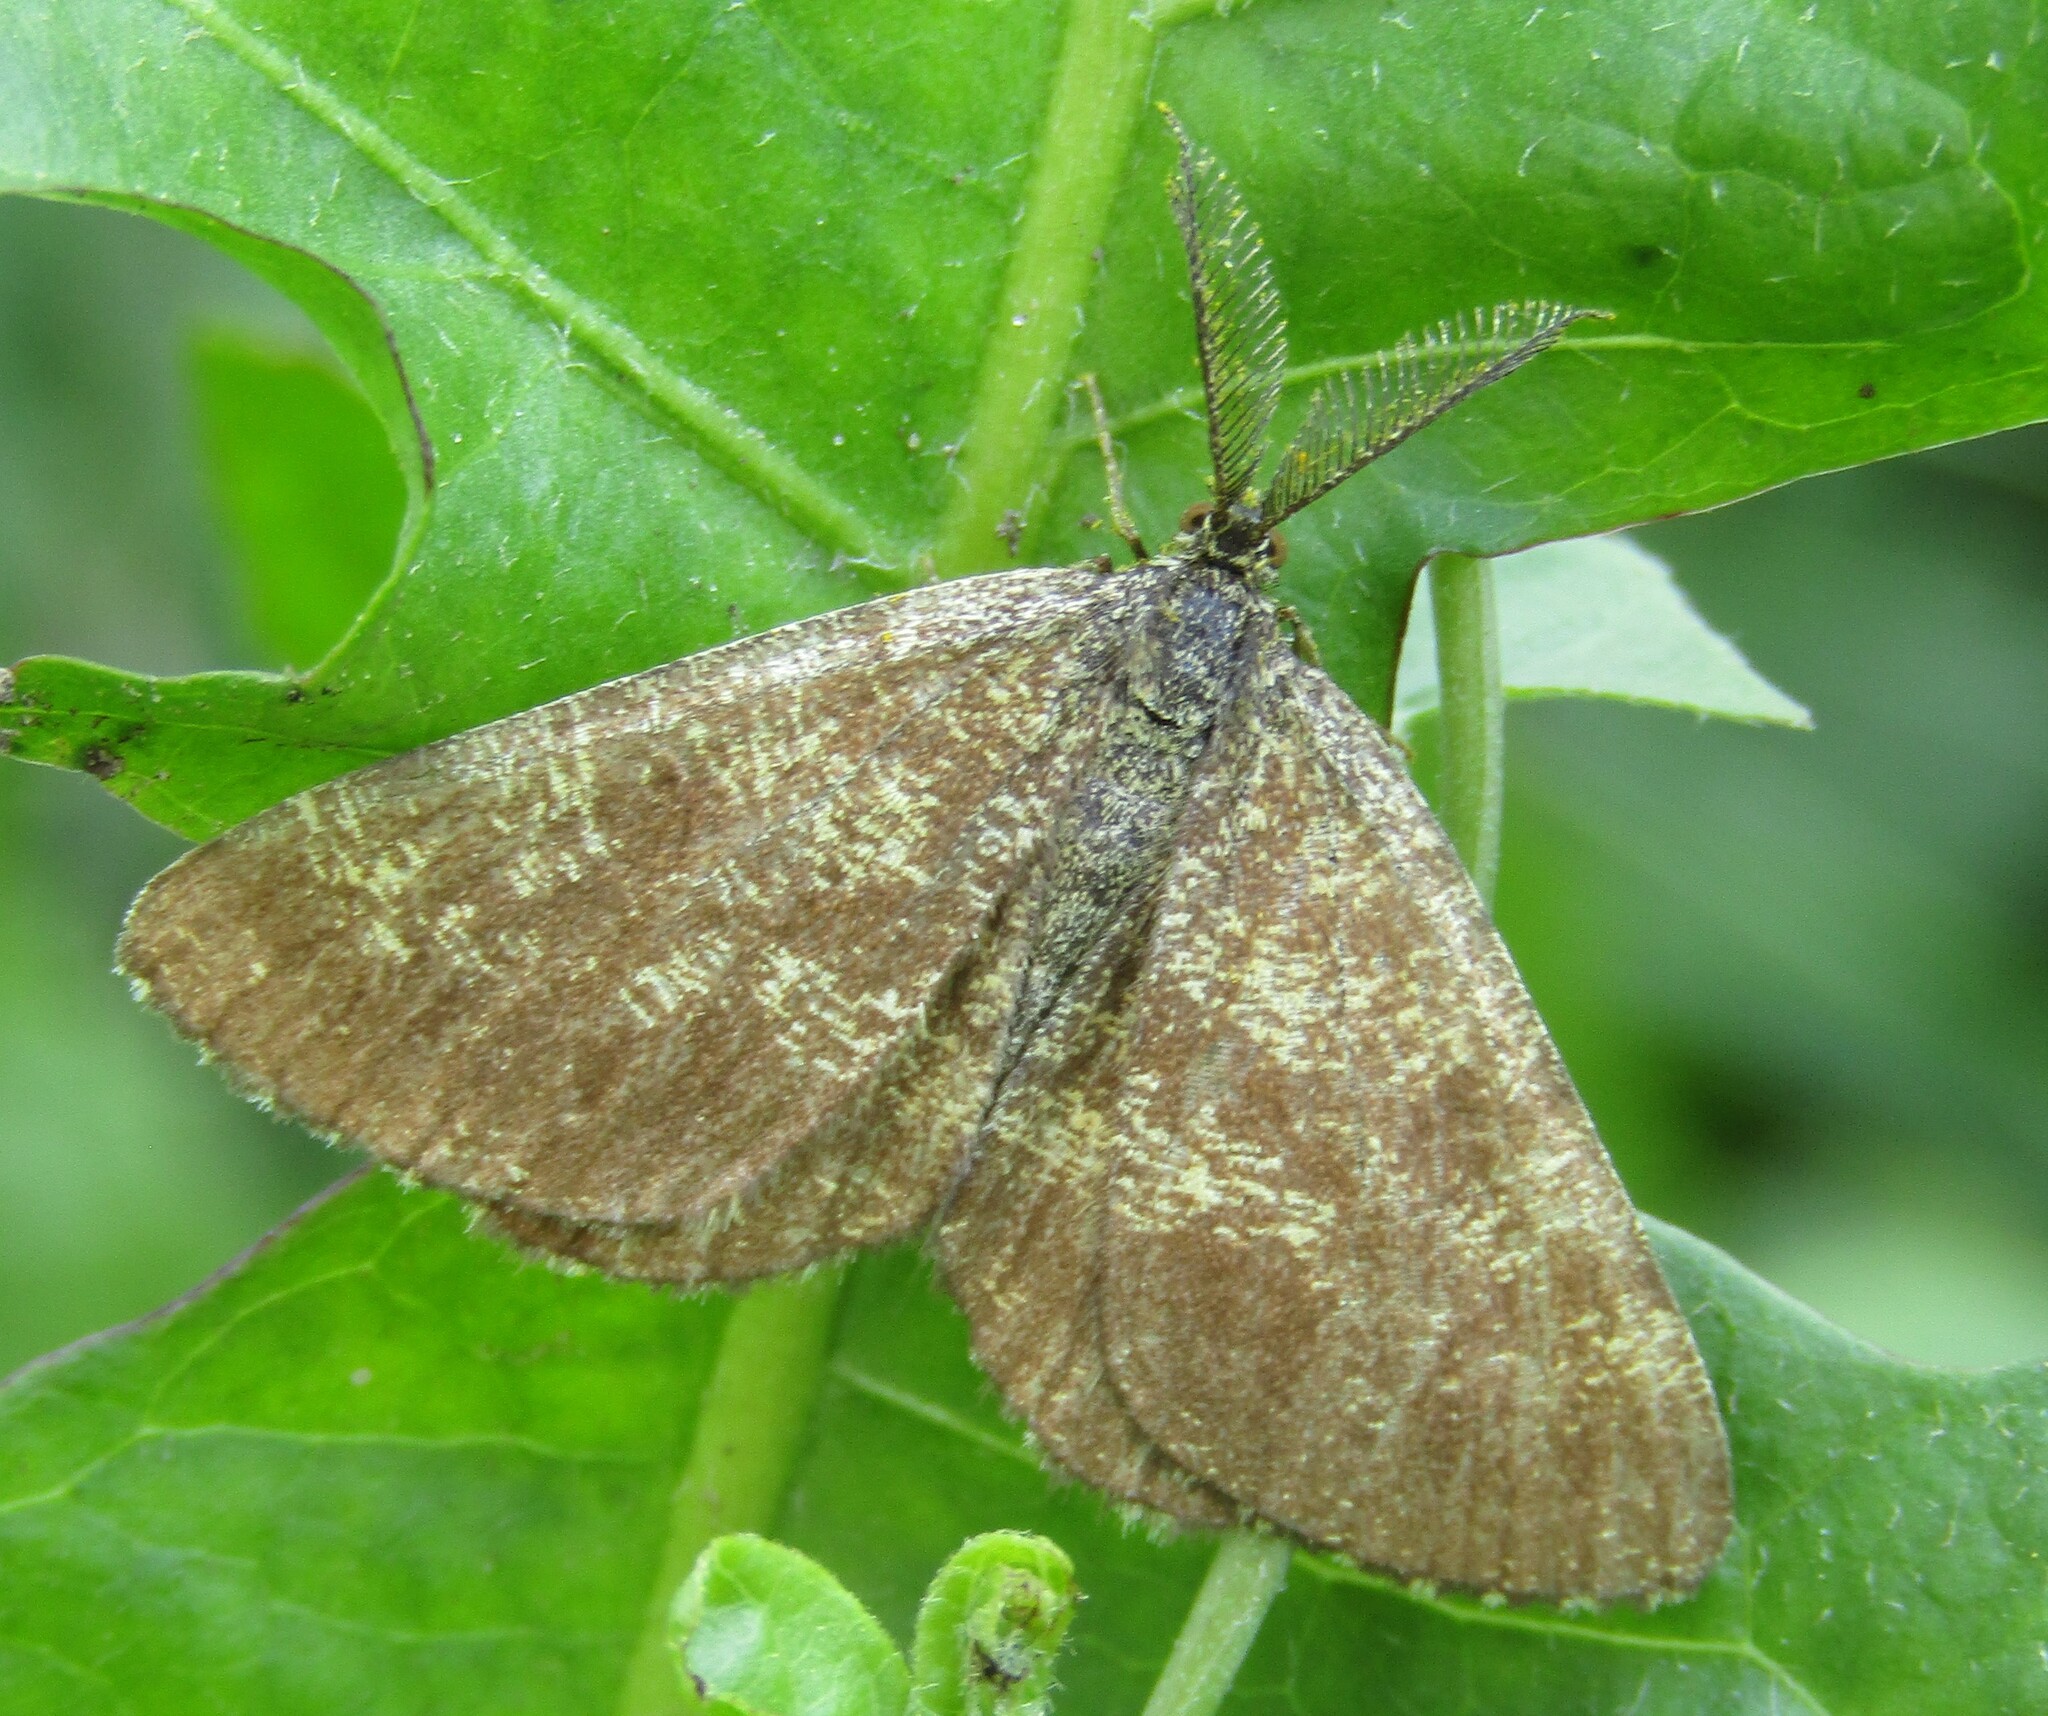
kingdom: Animalia
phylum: Arthropoda
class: Insecta
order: Lepidoptera
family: Geometridae
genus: Ematurga
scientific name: Ematurga atomaria
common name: Common heath
